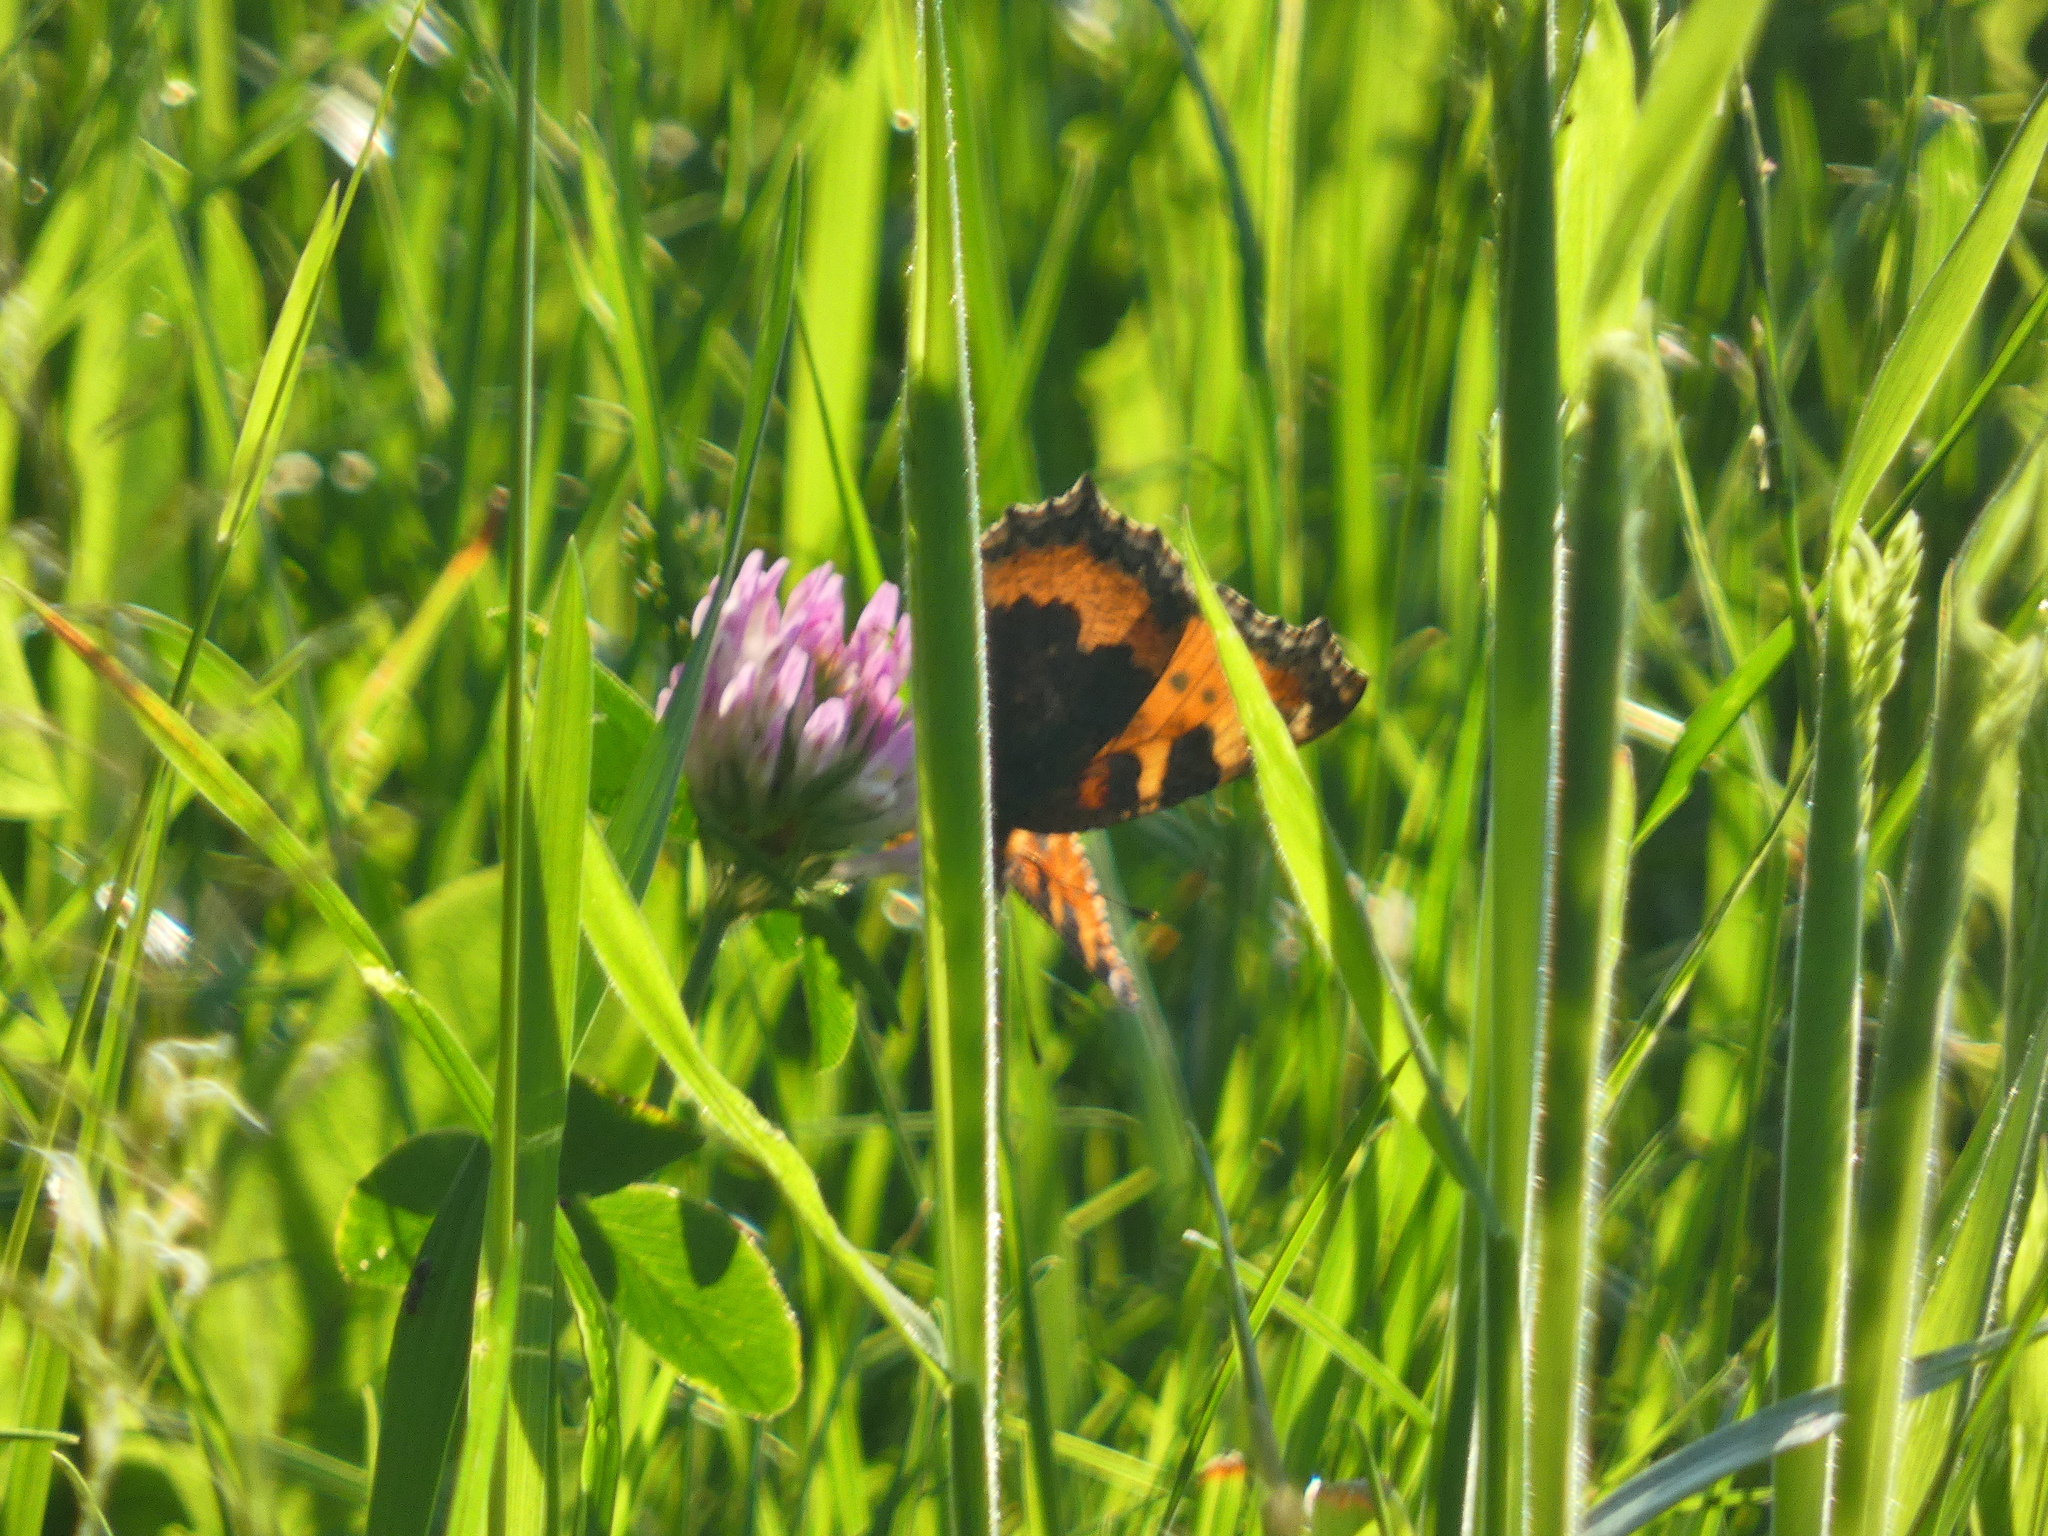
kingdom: Animalia
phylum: Arthropoda
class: Insecta
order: Lepidoptera
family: Nymphalidae
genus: Aglais
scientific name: Aglais urticae
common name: Small tortoiseshell
